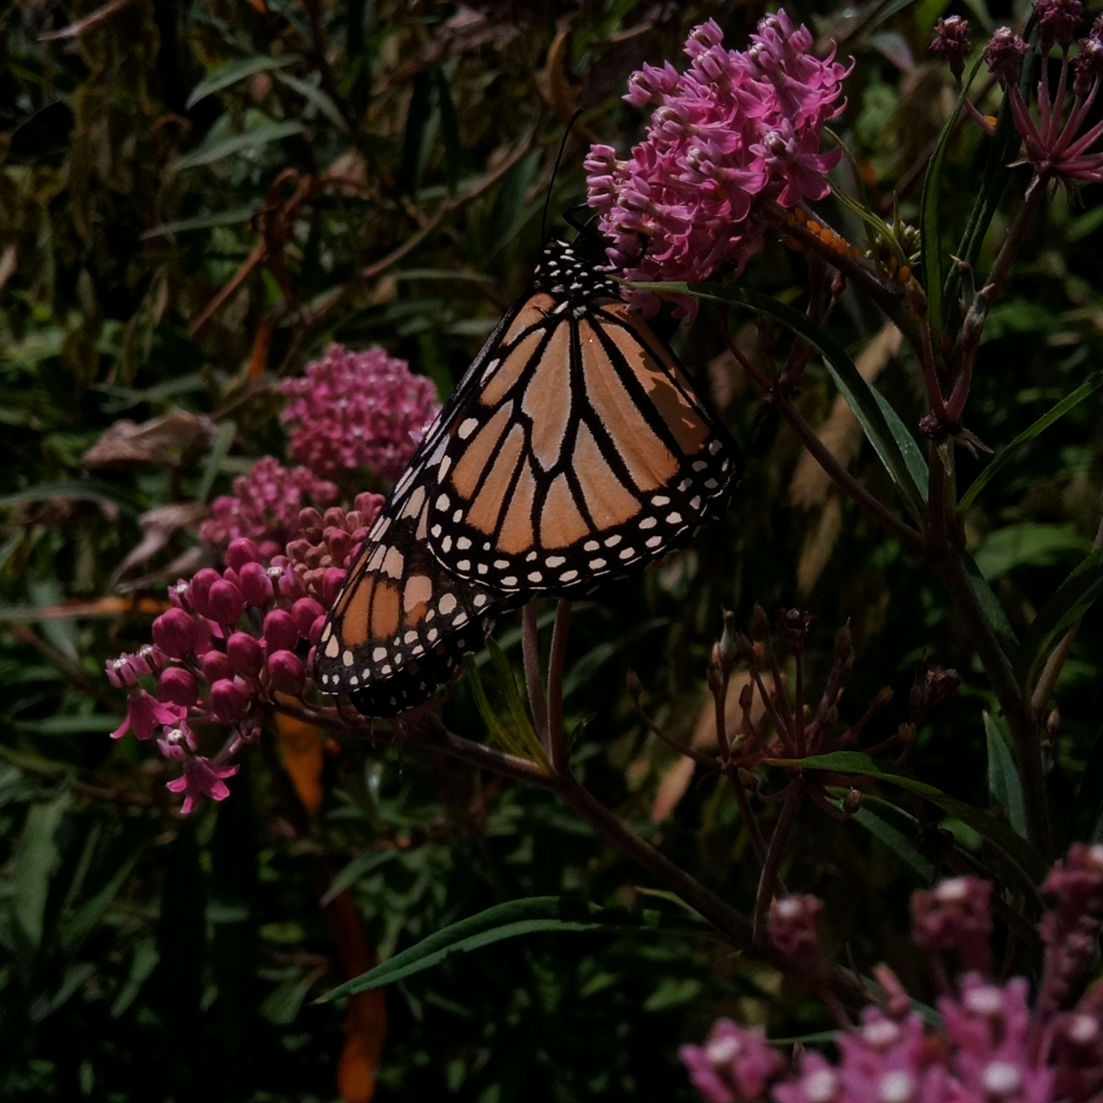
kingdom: Animalia
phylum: Arthropoda
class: Insecta
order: Lepidoptera
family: Nymphalidae
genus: Danaus
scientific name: Danaus plexippus
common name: Monarch
